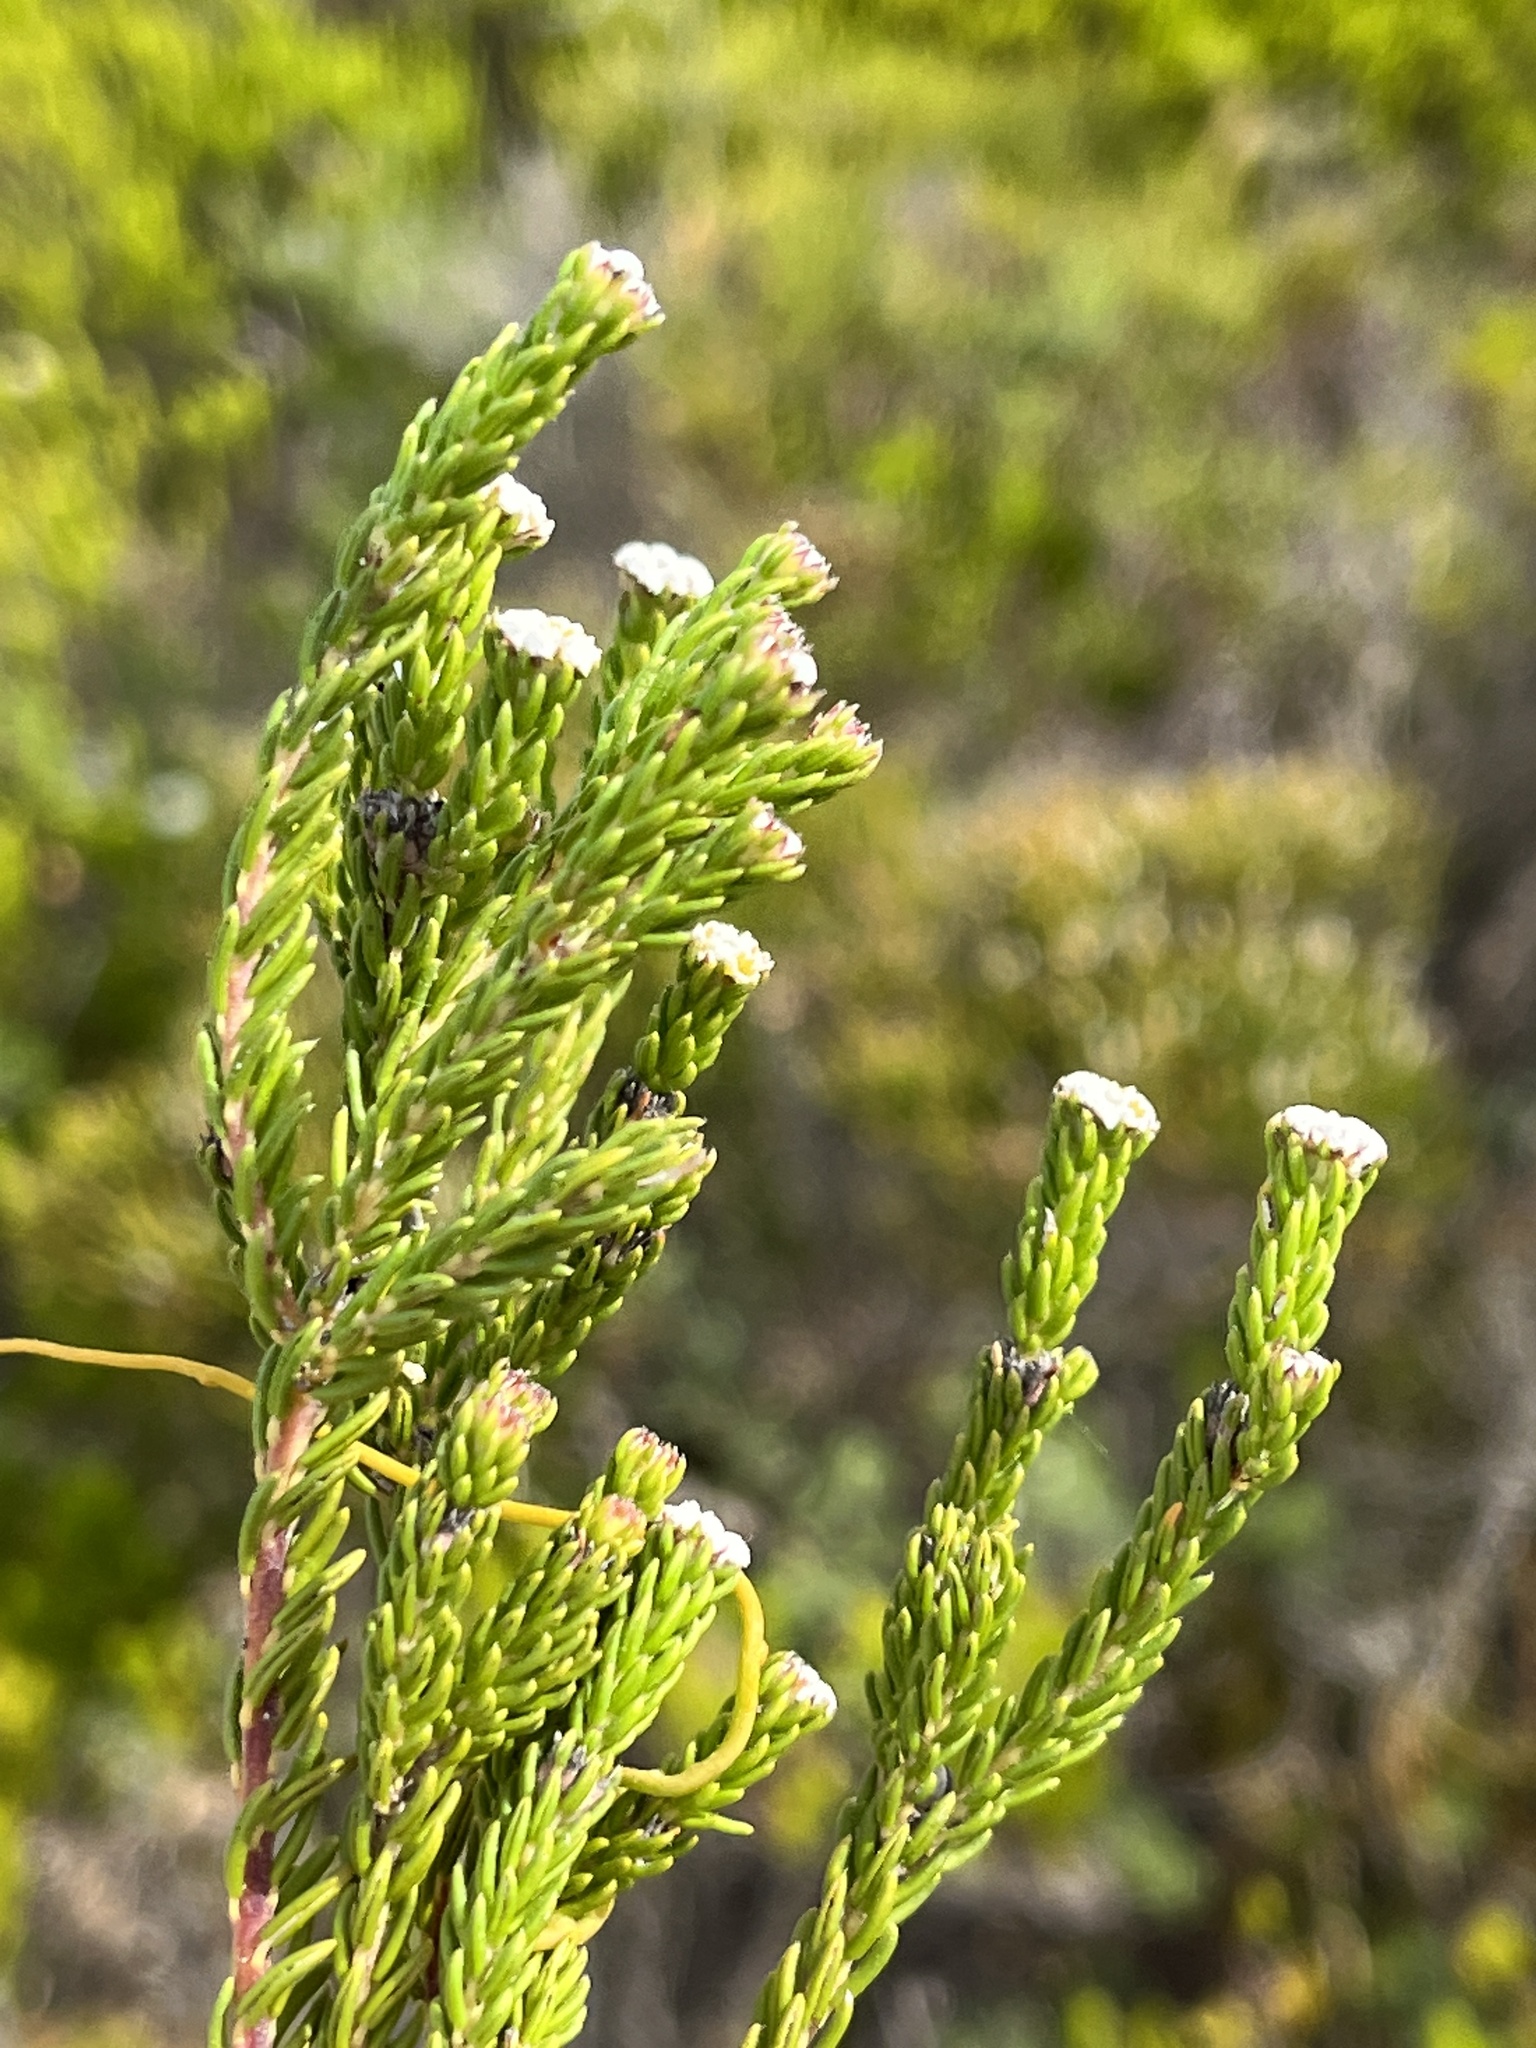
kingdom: Plantae
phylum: Tracheophyta
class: Magnoliopsida
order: Rosales
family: Rhamnaceae
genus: Phylica
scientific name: Phylica ericoides
